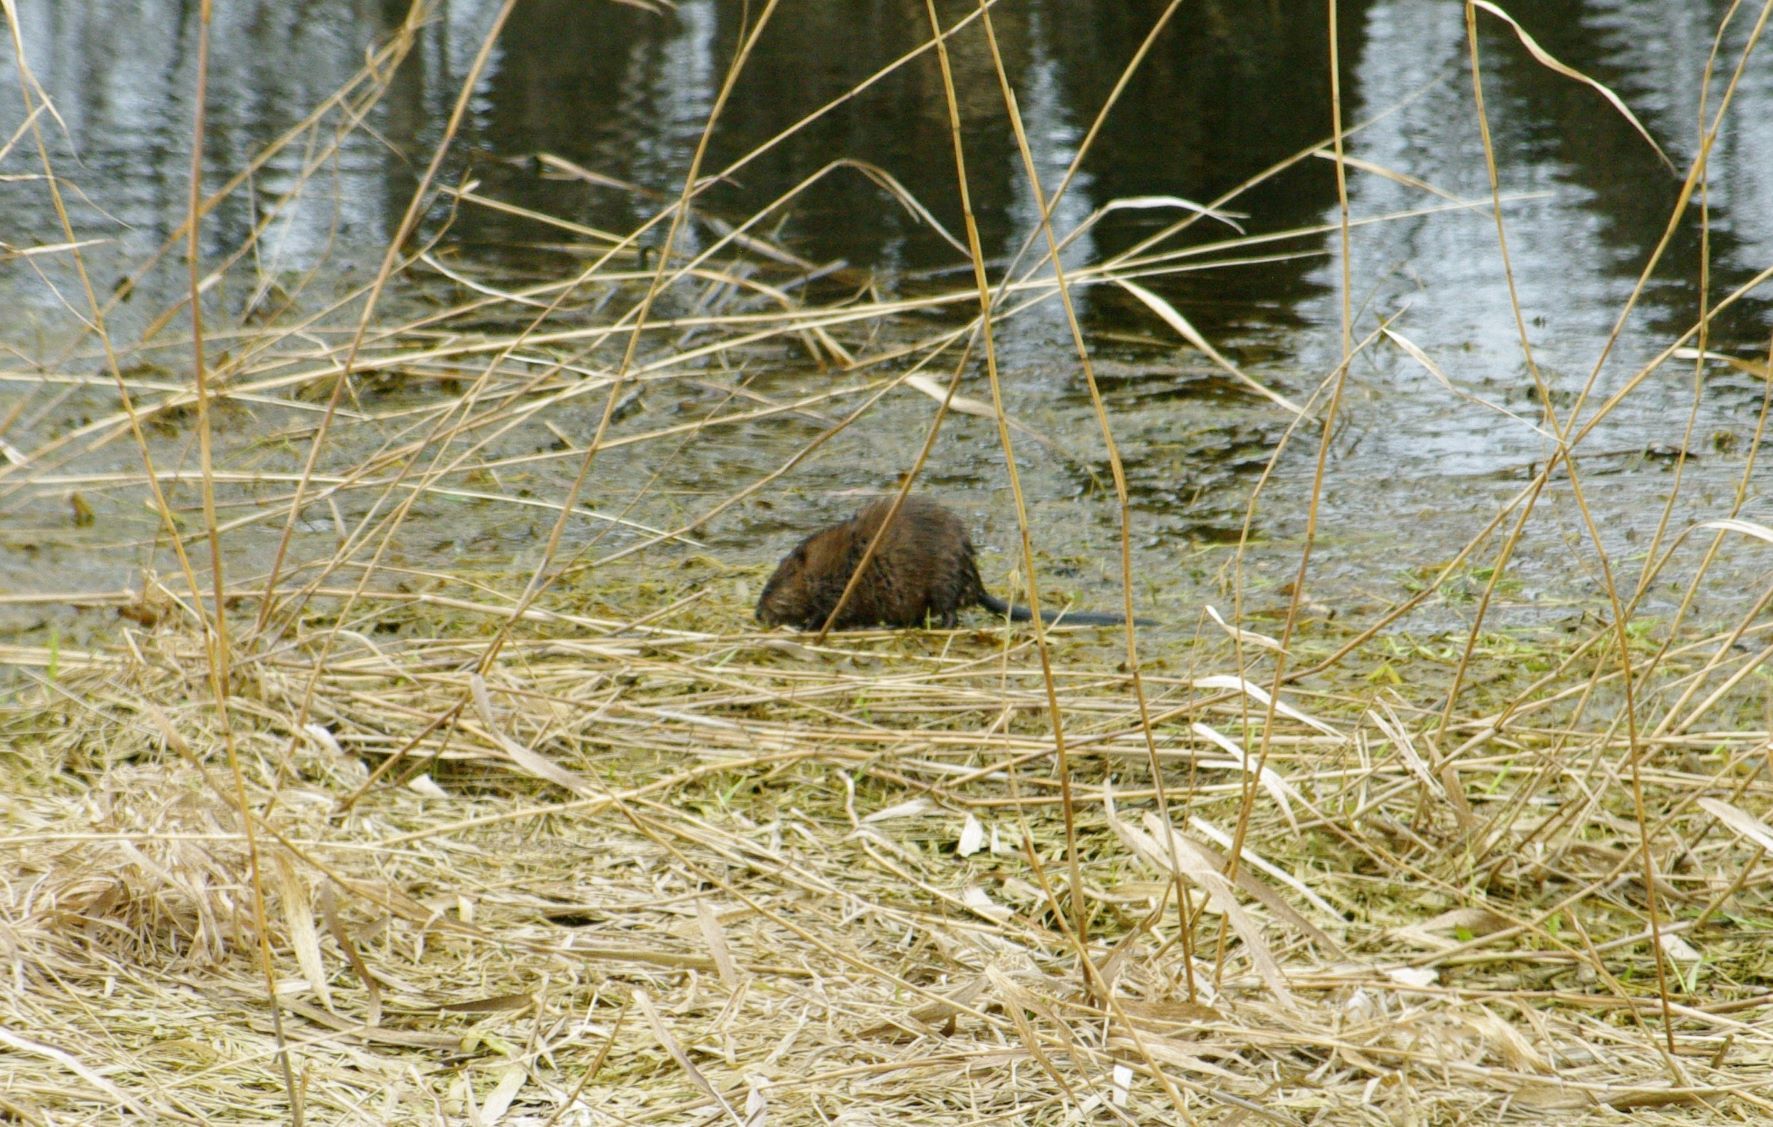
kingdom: Animalia
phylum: Chordata
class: Mammalia
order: Rodentia
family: Cricetidae
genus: Ondatra
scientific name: Ondatra zibethicus
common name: Muskrat
